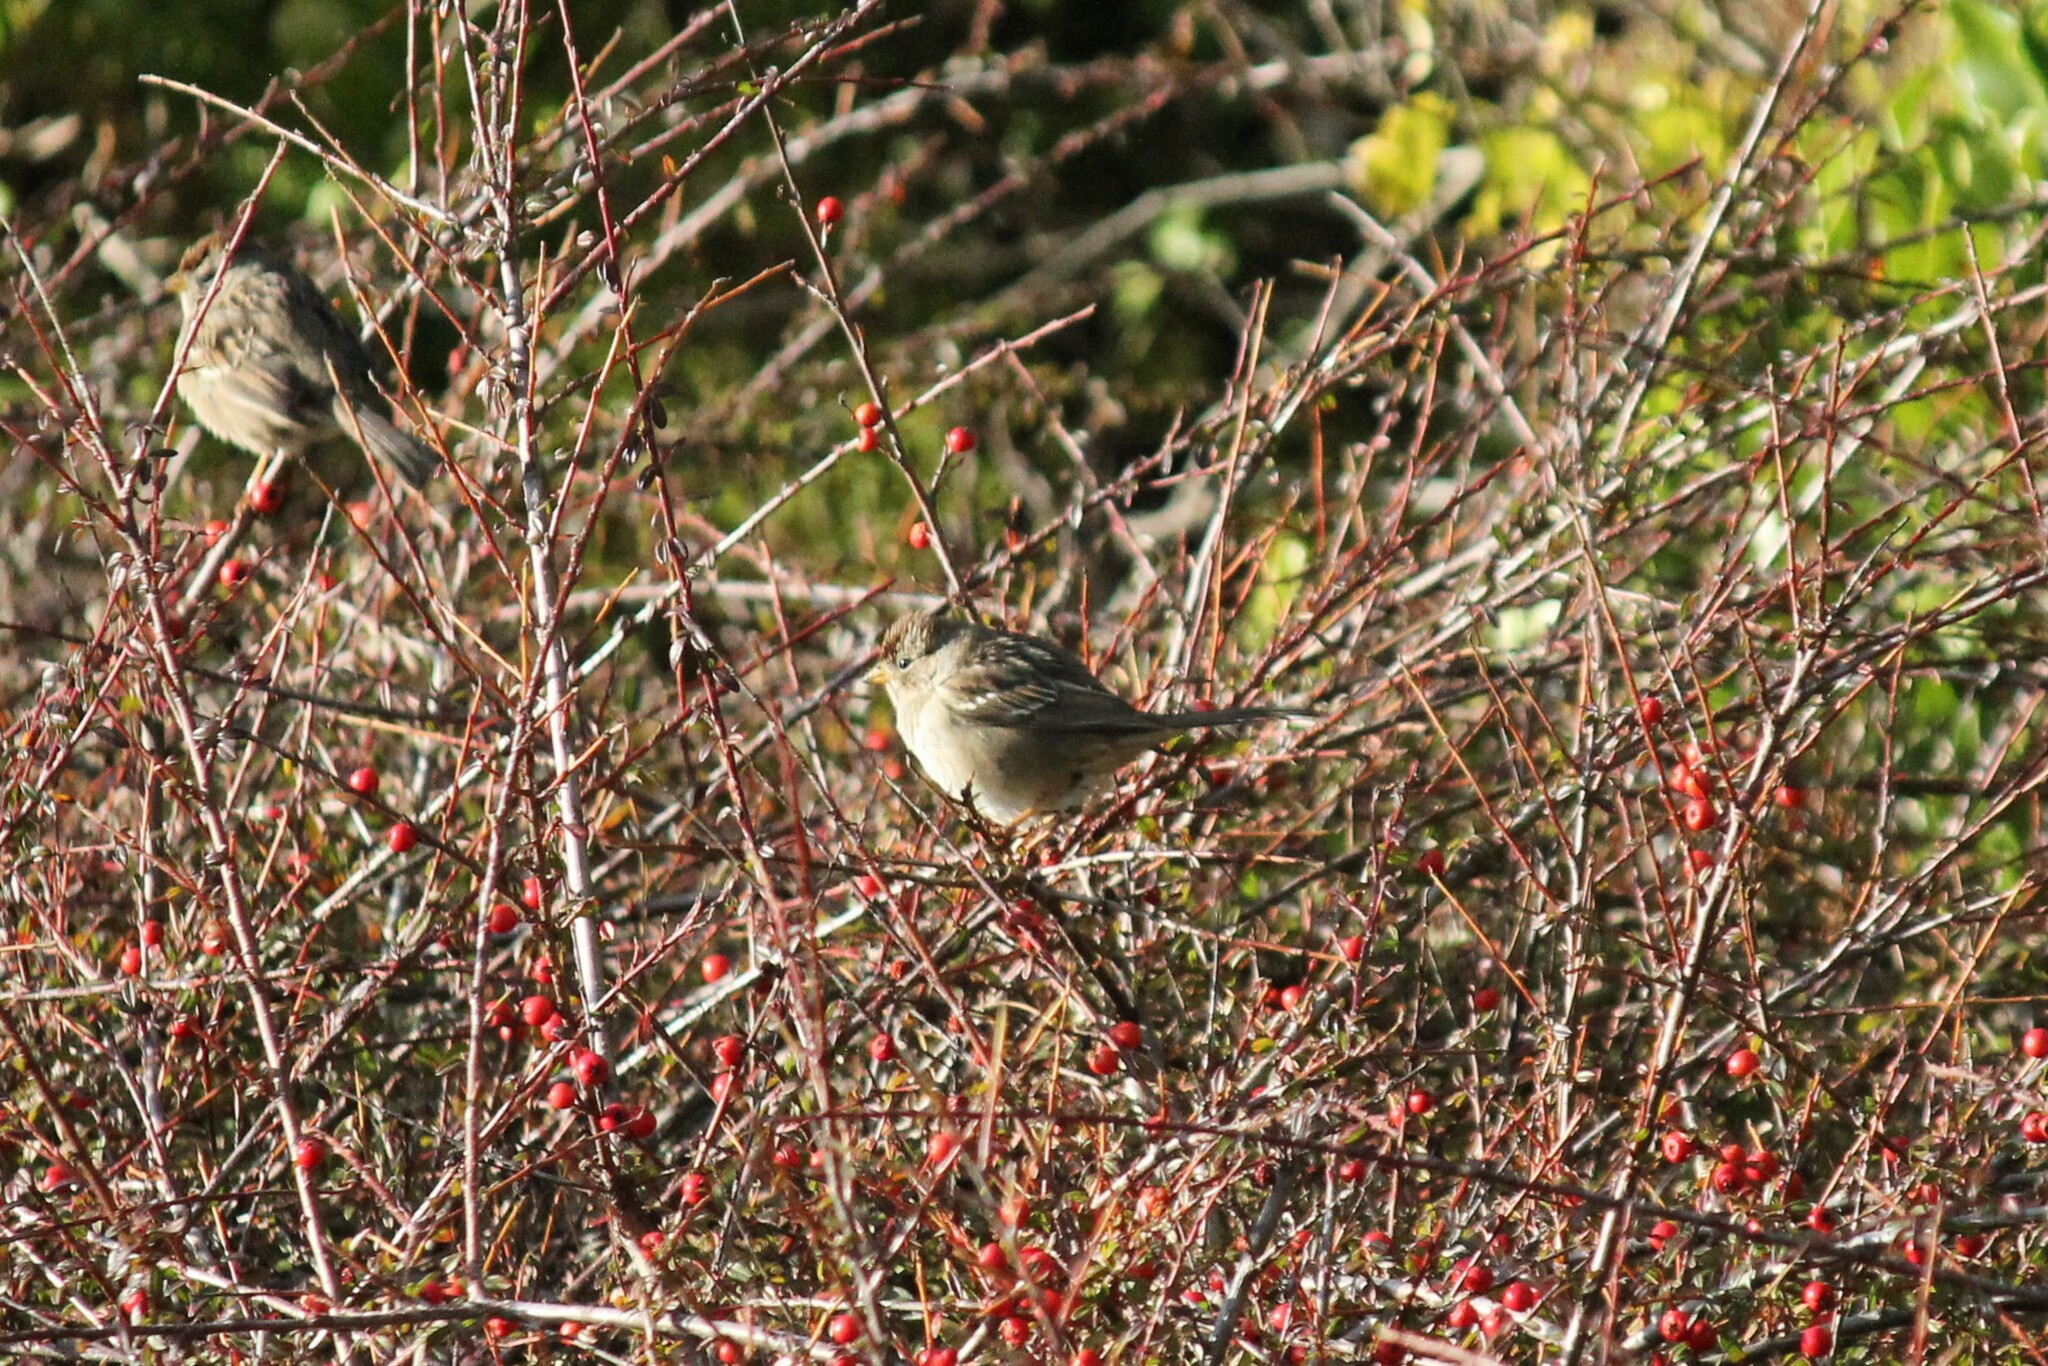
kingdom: Animalia
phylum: Chordata
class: Aves
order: Passeriformes
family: Passerellidae
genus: Zonotrichia
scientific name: Zonotrichia atricapilla
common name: Golden-crowned sparrow
